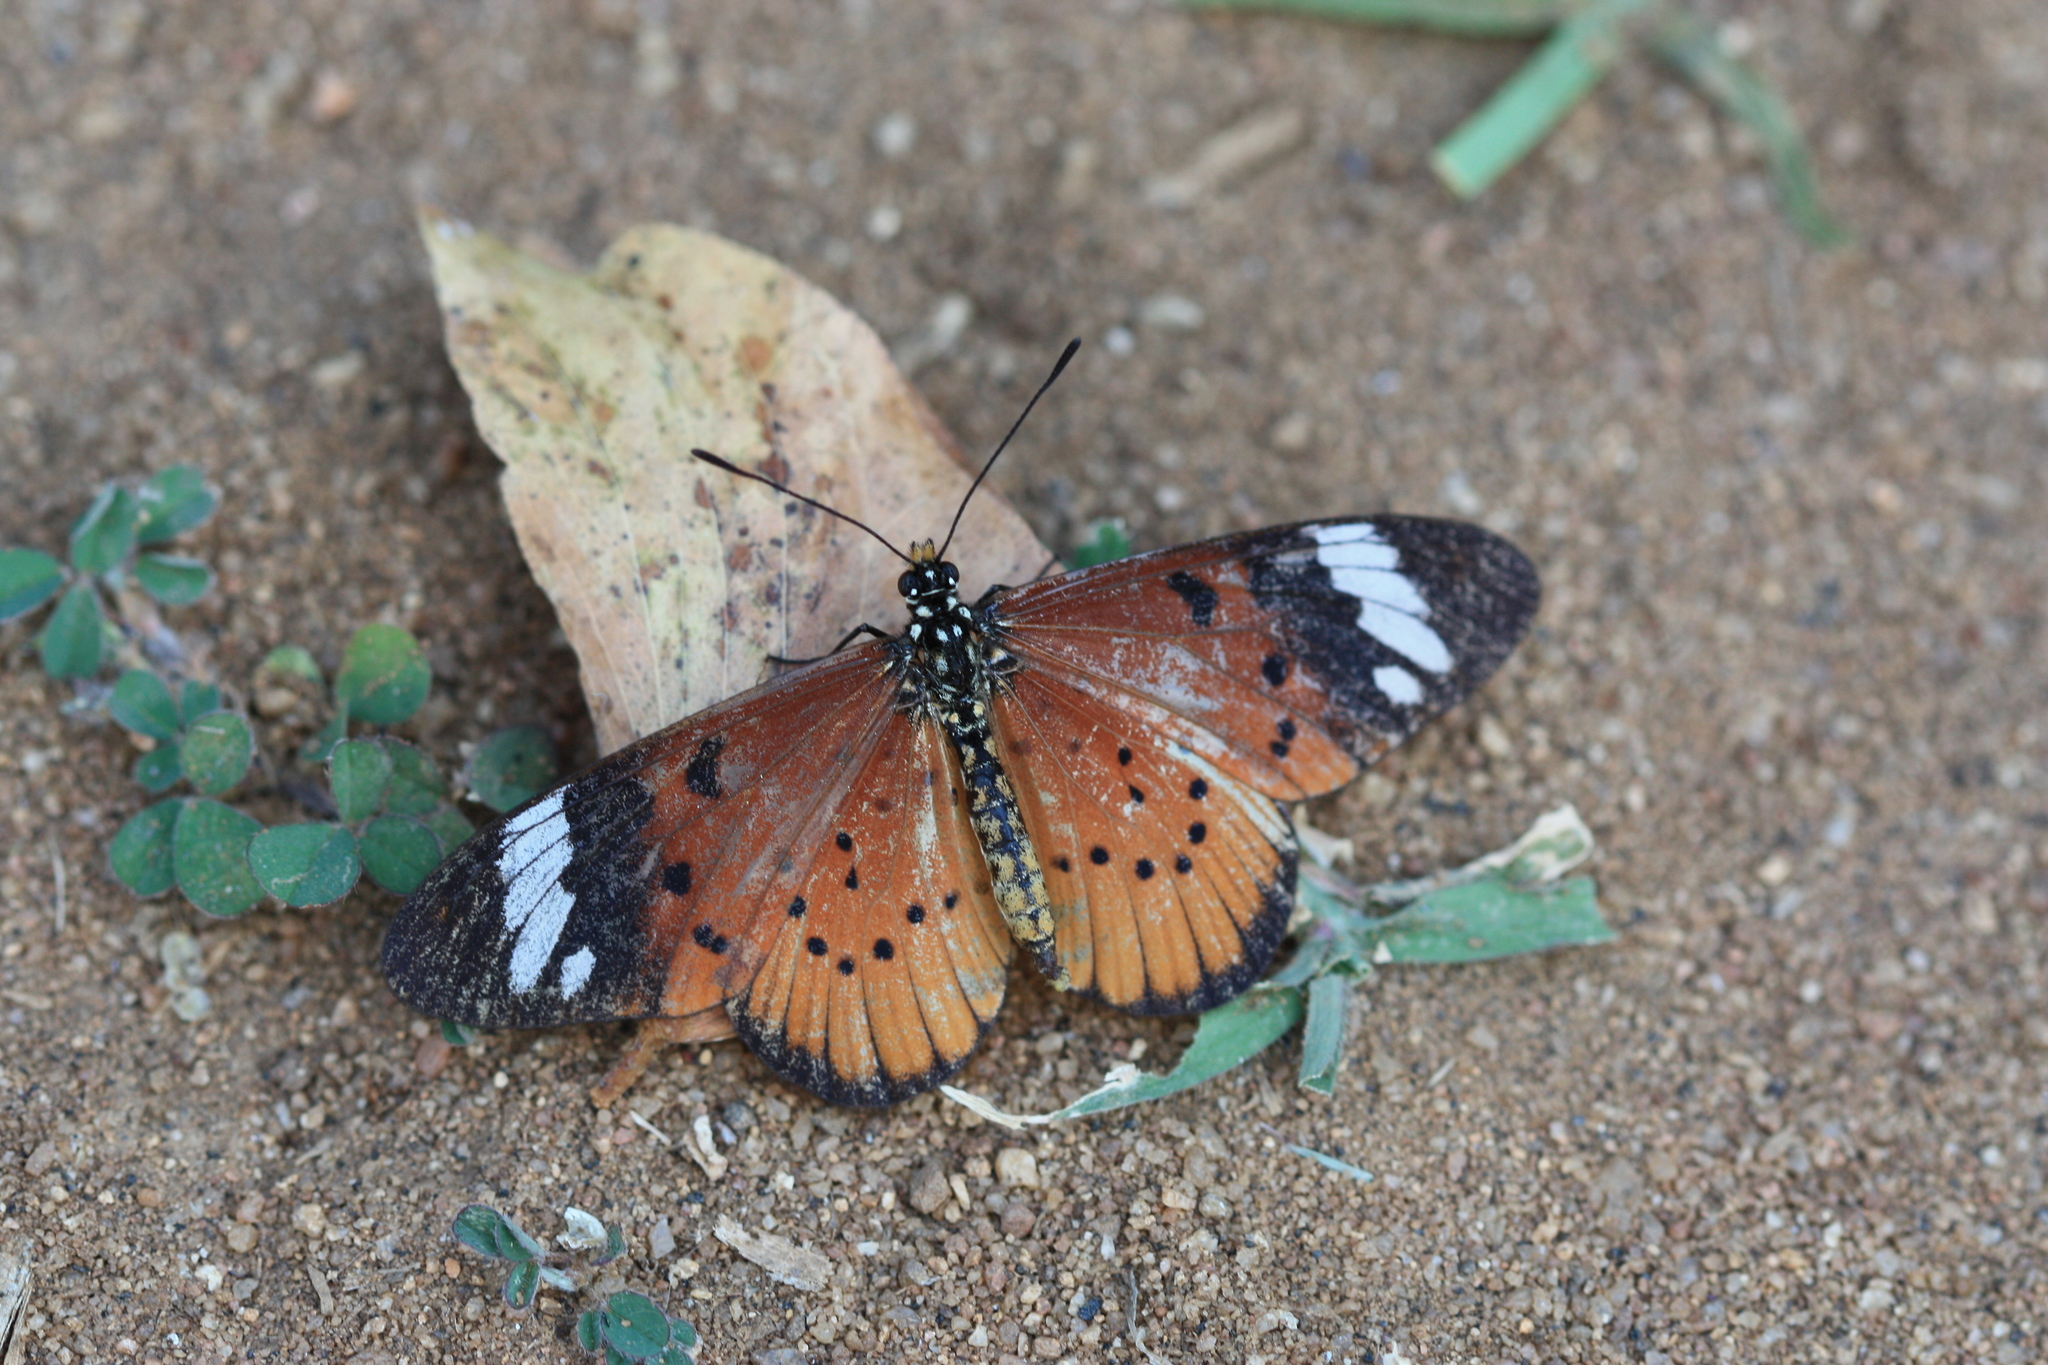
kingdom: Animalia
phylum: Arthropoda
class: Insecta
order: Lepidoptera
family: Nymphalidae
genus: Acraea
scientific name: Acraea Telchinia encedon
